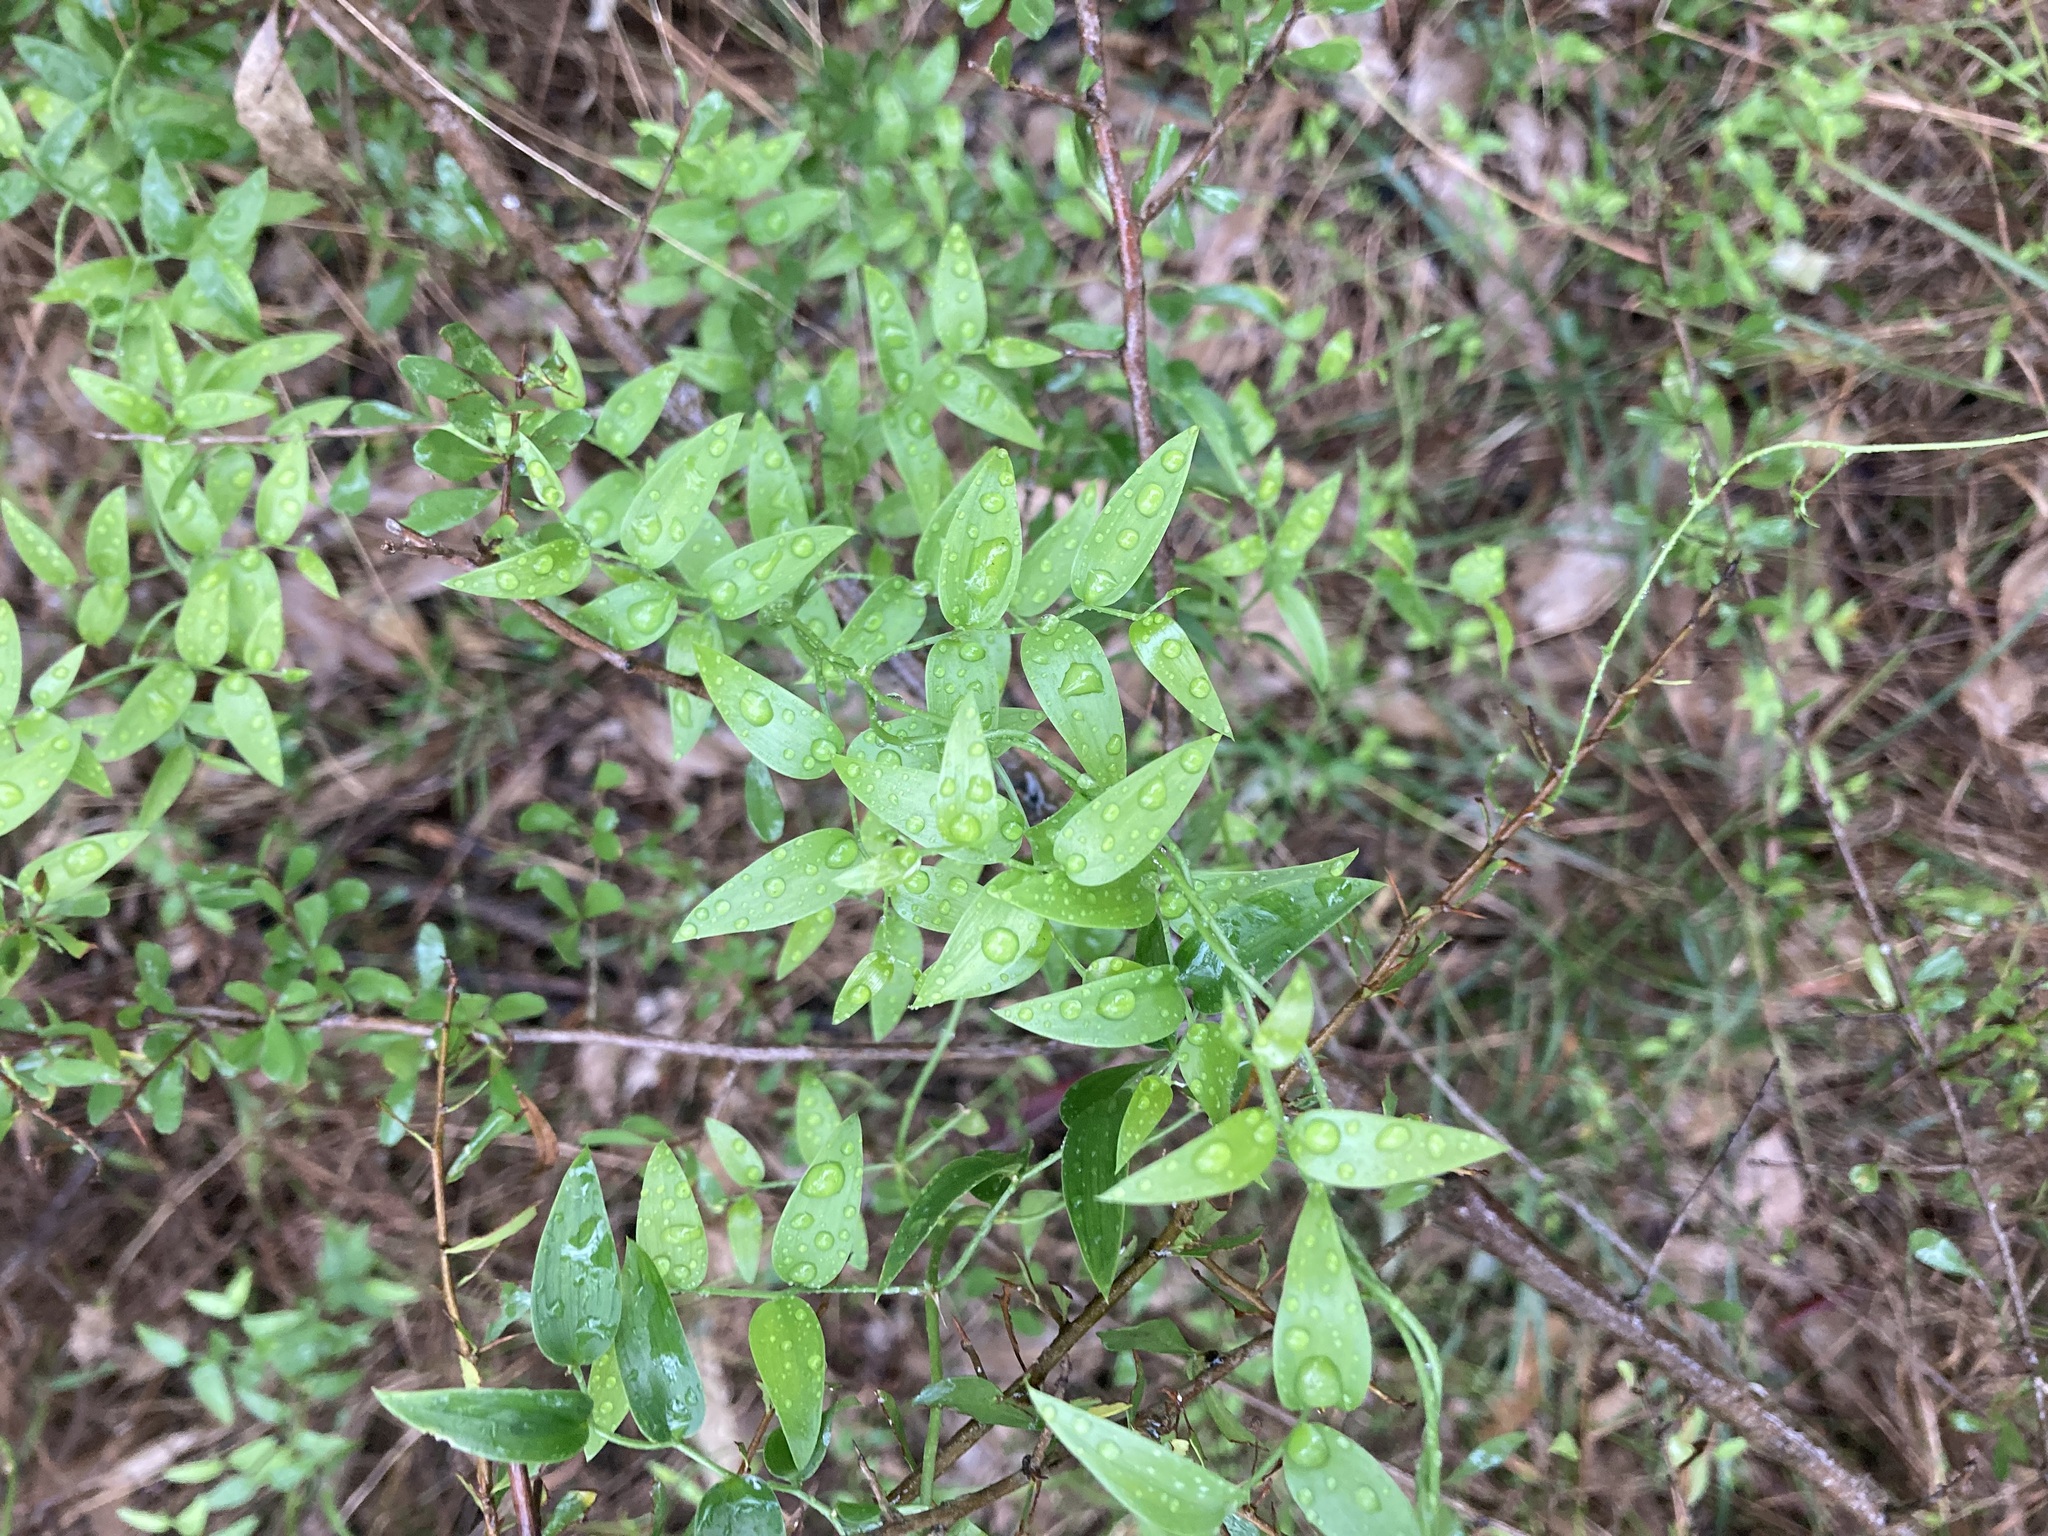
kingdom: Plantae
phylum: Tracheophyta
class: Liliopsida
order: Asparagales
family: Asparagaceae
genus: Asparagus
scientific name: Asparagus asparagoides
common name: African asparagus fern
